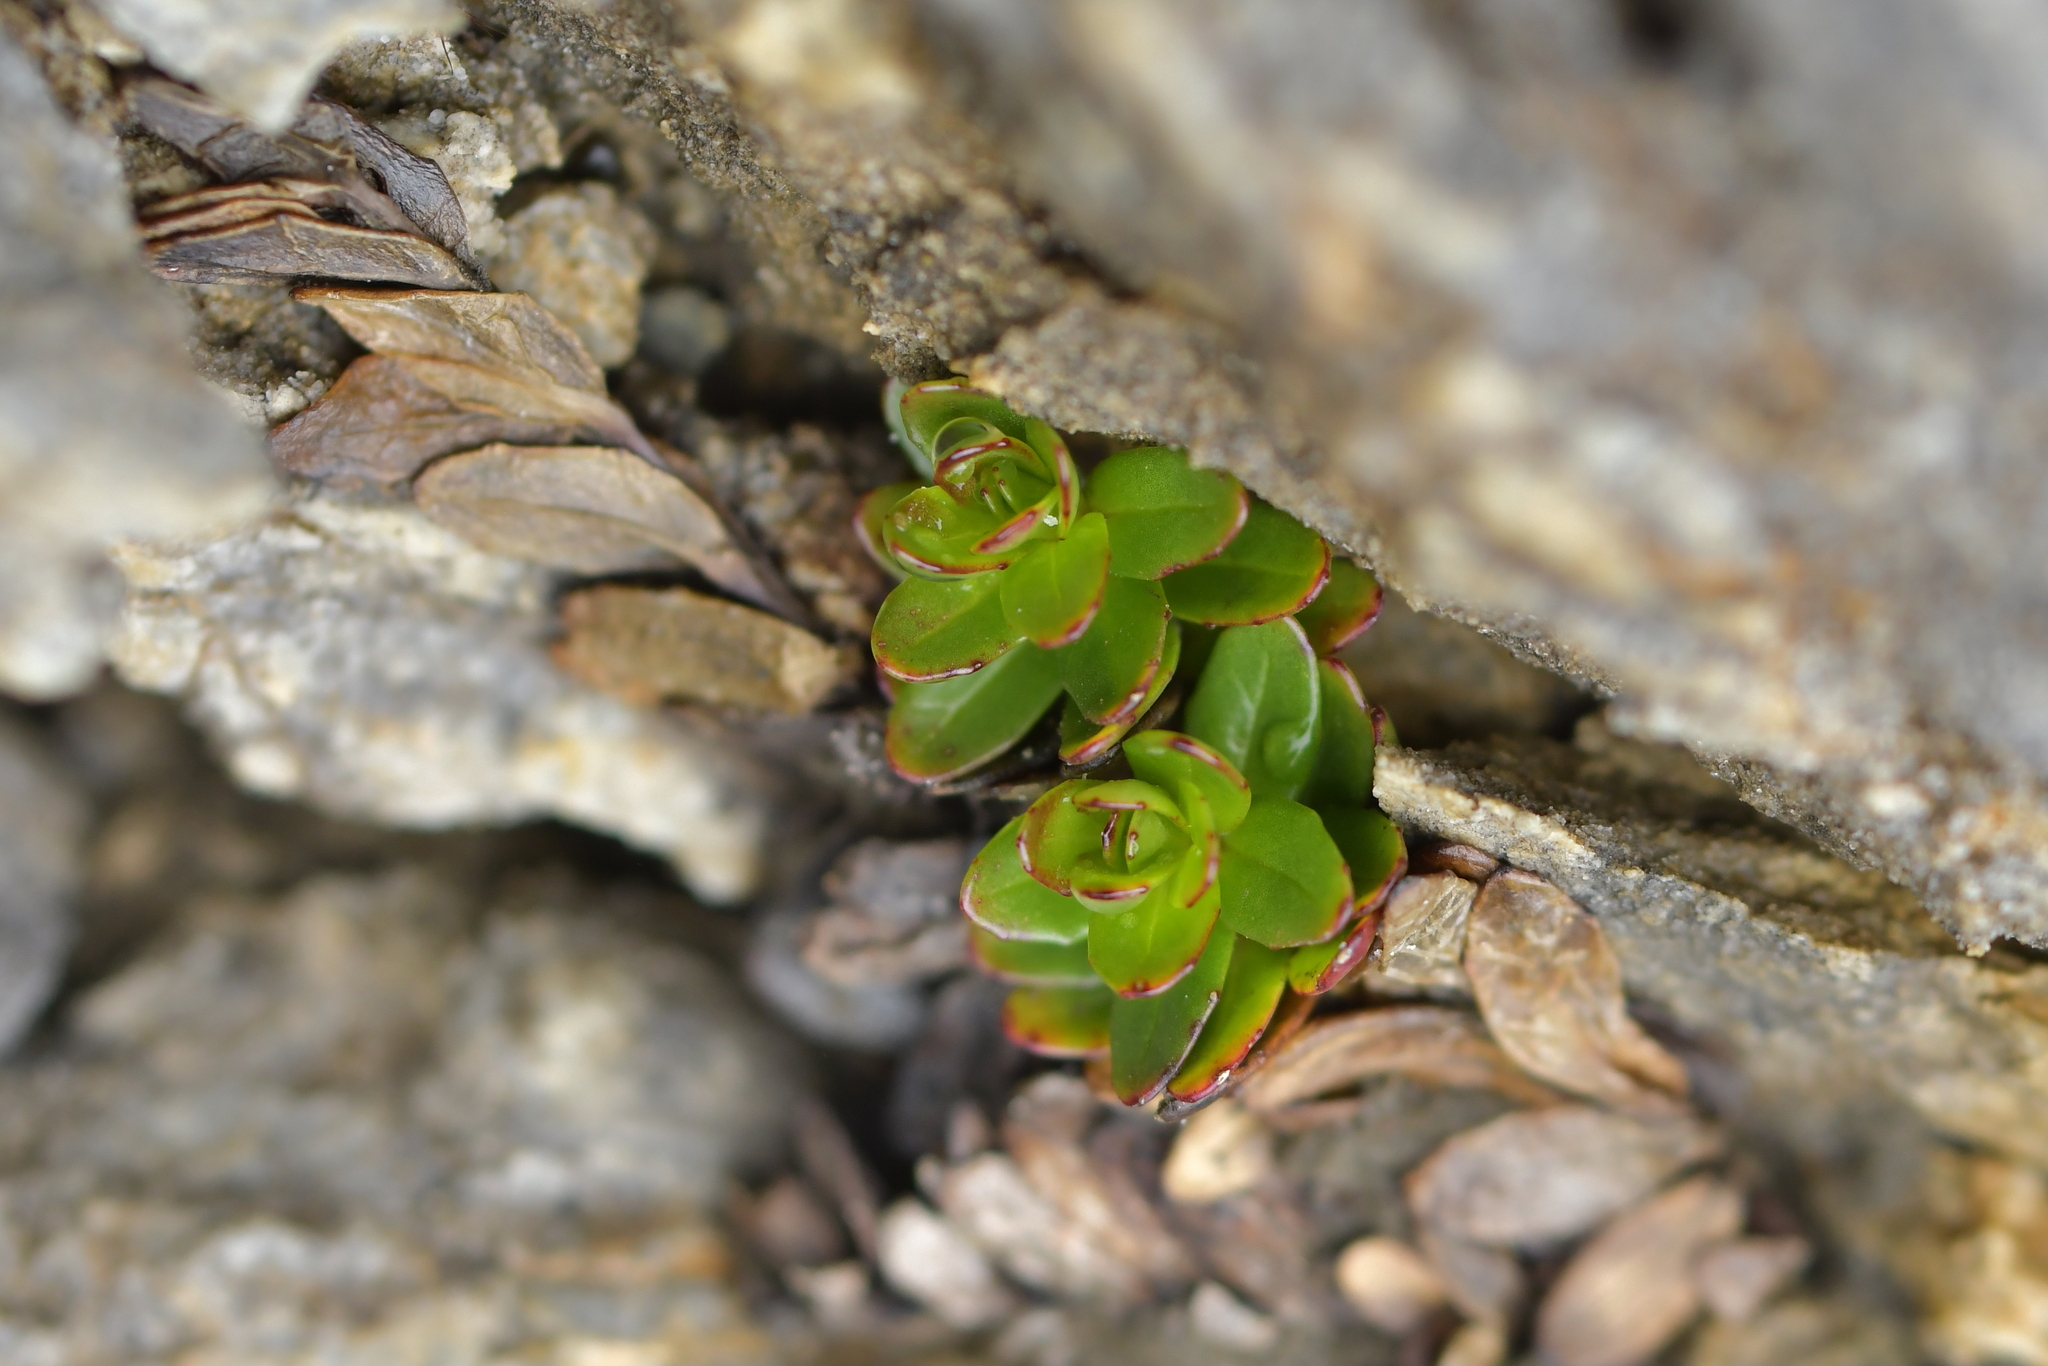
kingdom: Plantae
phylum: Tracheophyta
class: Magnoliopsida
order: Myrtales
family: Onagraceae
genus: Epilobium
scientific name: Epilobium glabellum
